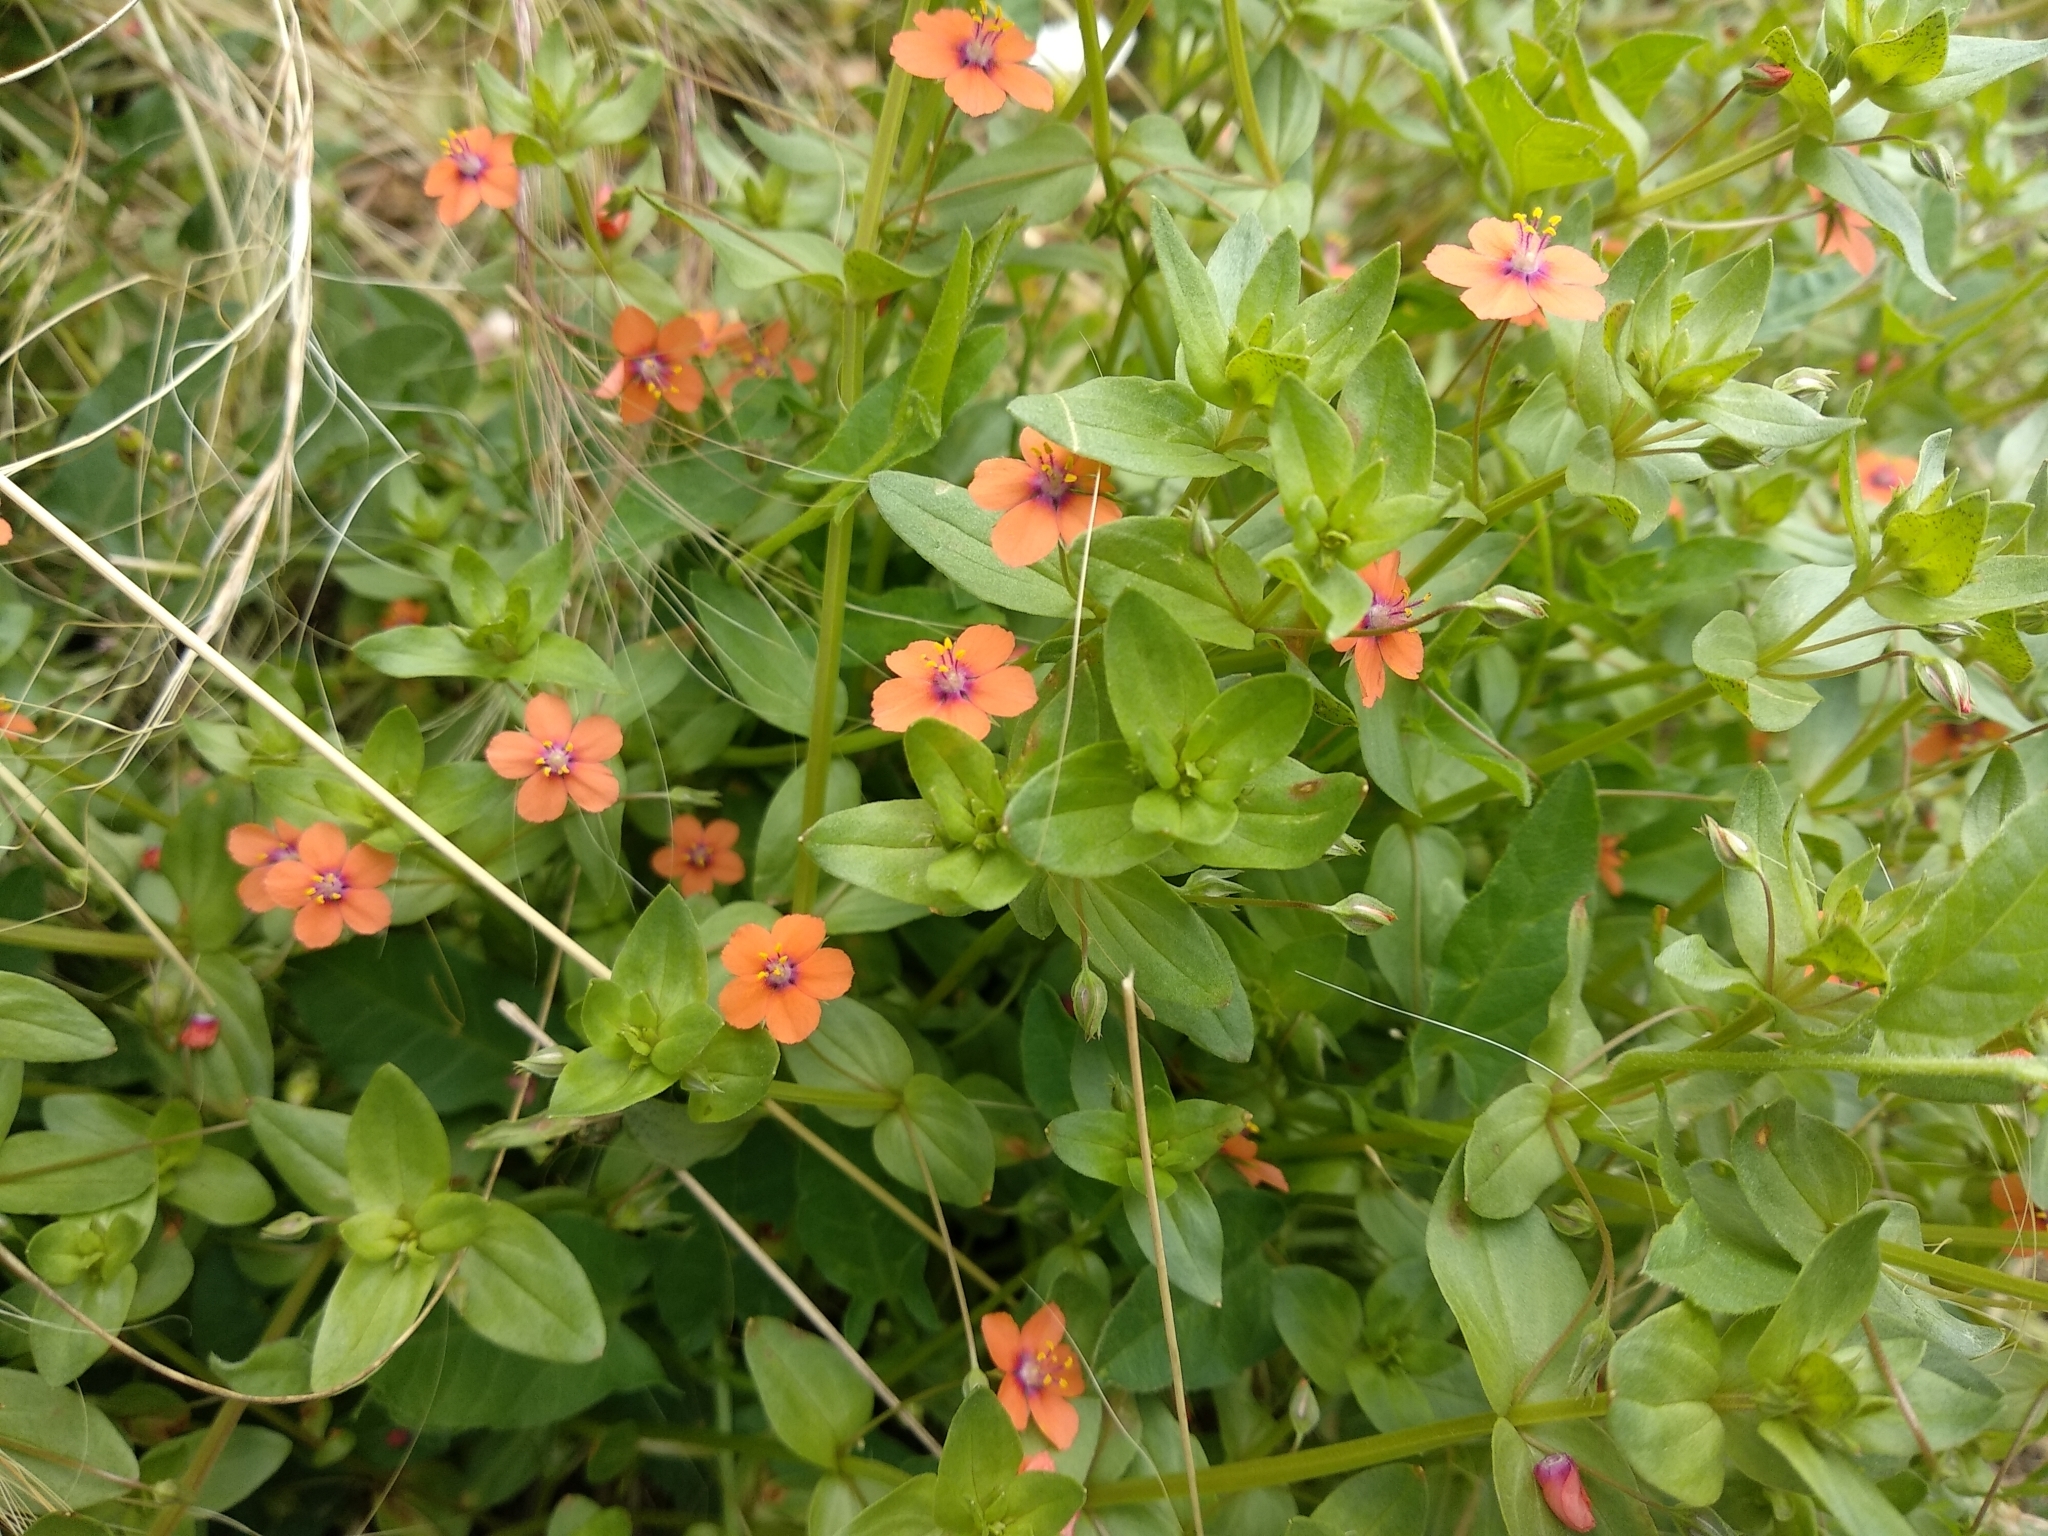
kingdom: Plantae
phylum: Tracheophyta
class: Magnoliopsida
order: Ericales
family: Primulaceae
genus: Lysimachia
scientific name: Lysimachia arvensis
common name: Scarlet pimpernel
